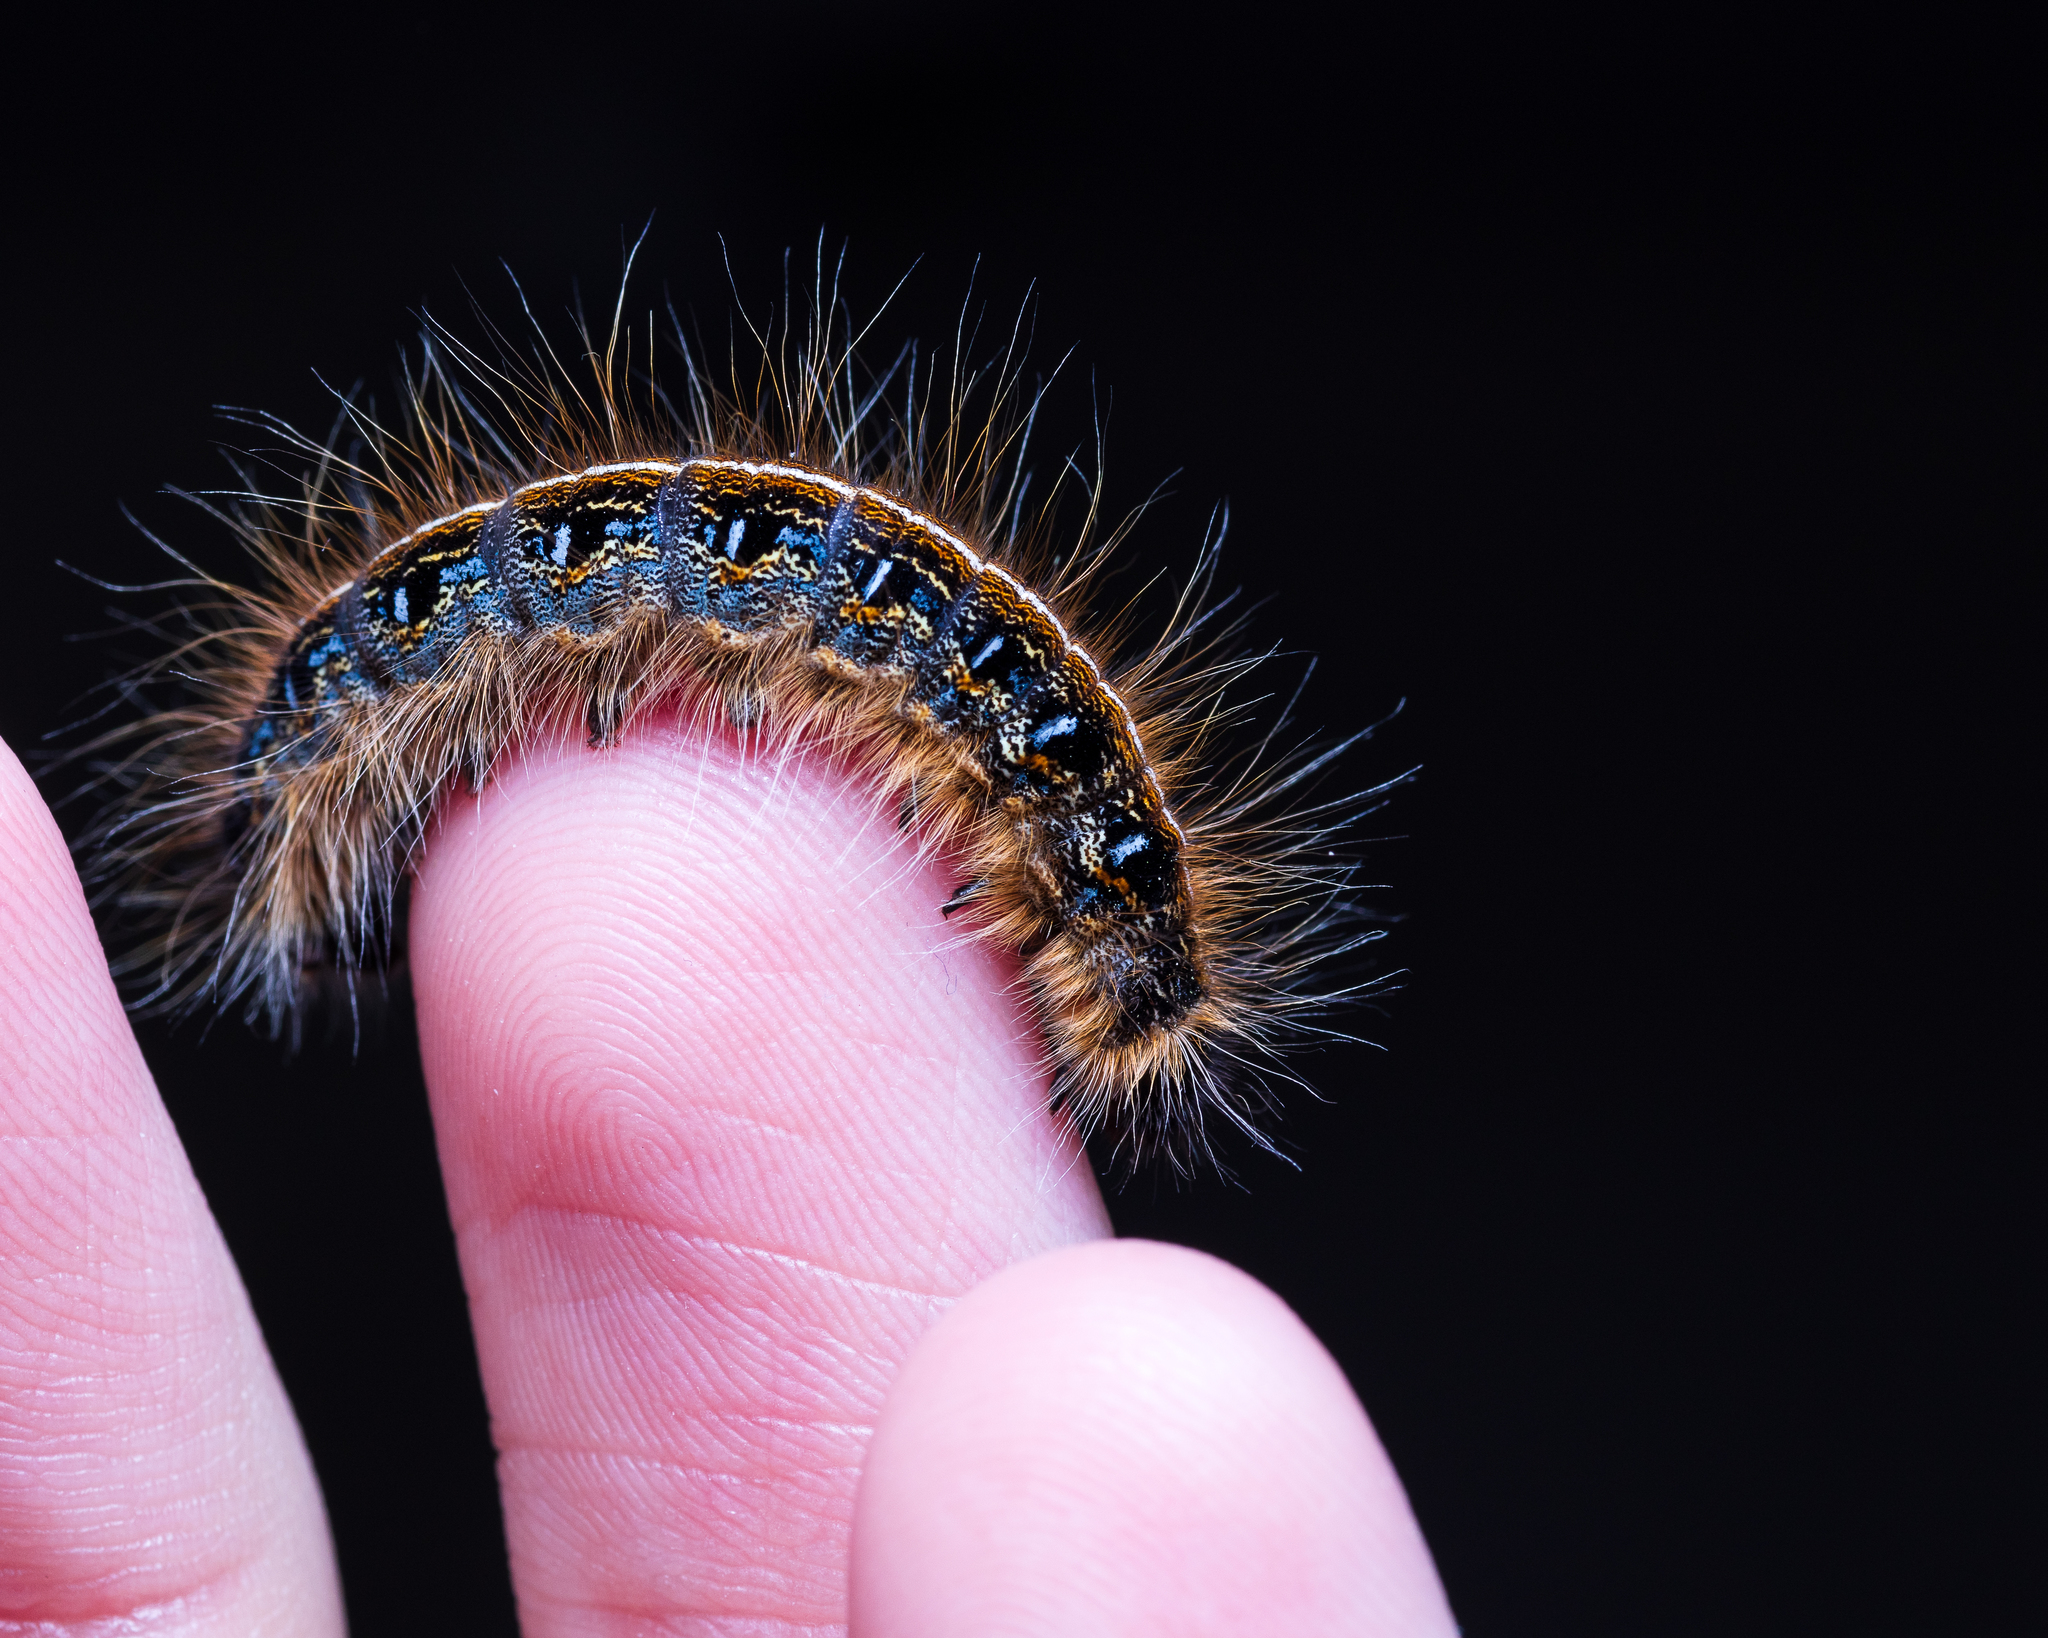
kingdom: Animalia
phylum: Arthropoda
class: Insecta
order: Lepidoptera
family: Lasiocampidae
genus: Malacosoma
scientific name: Malacosoma americana
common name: Eastern tent caterpillar moth
